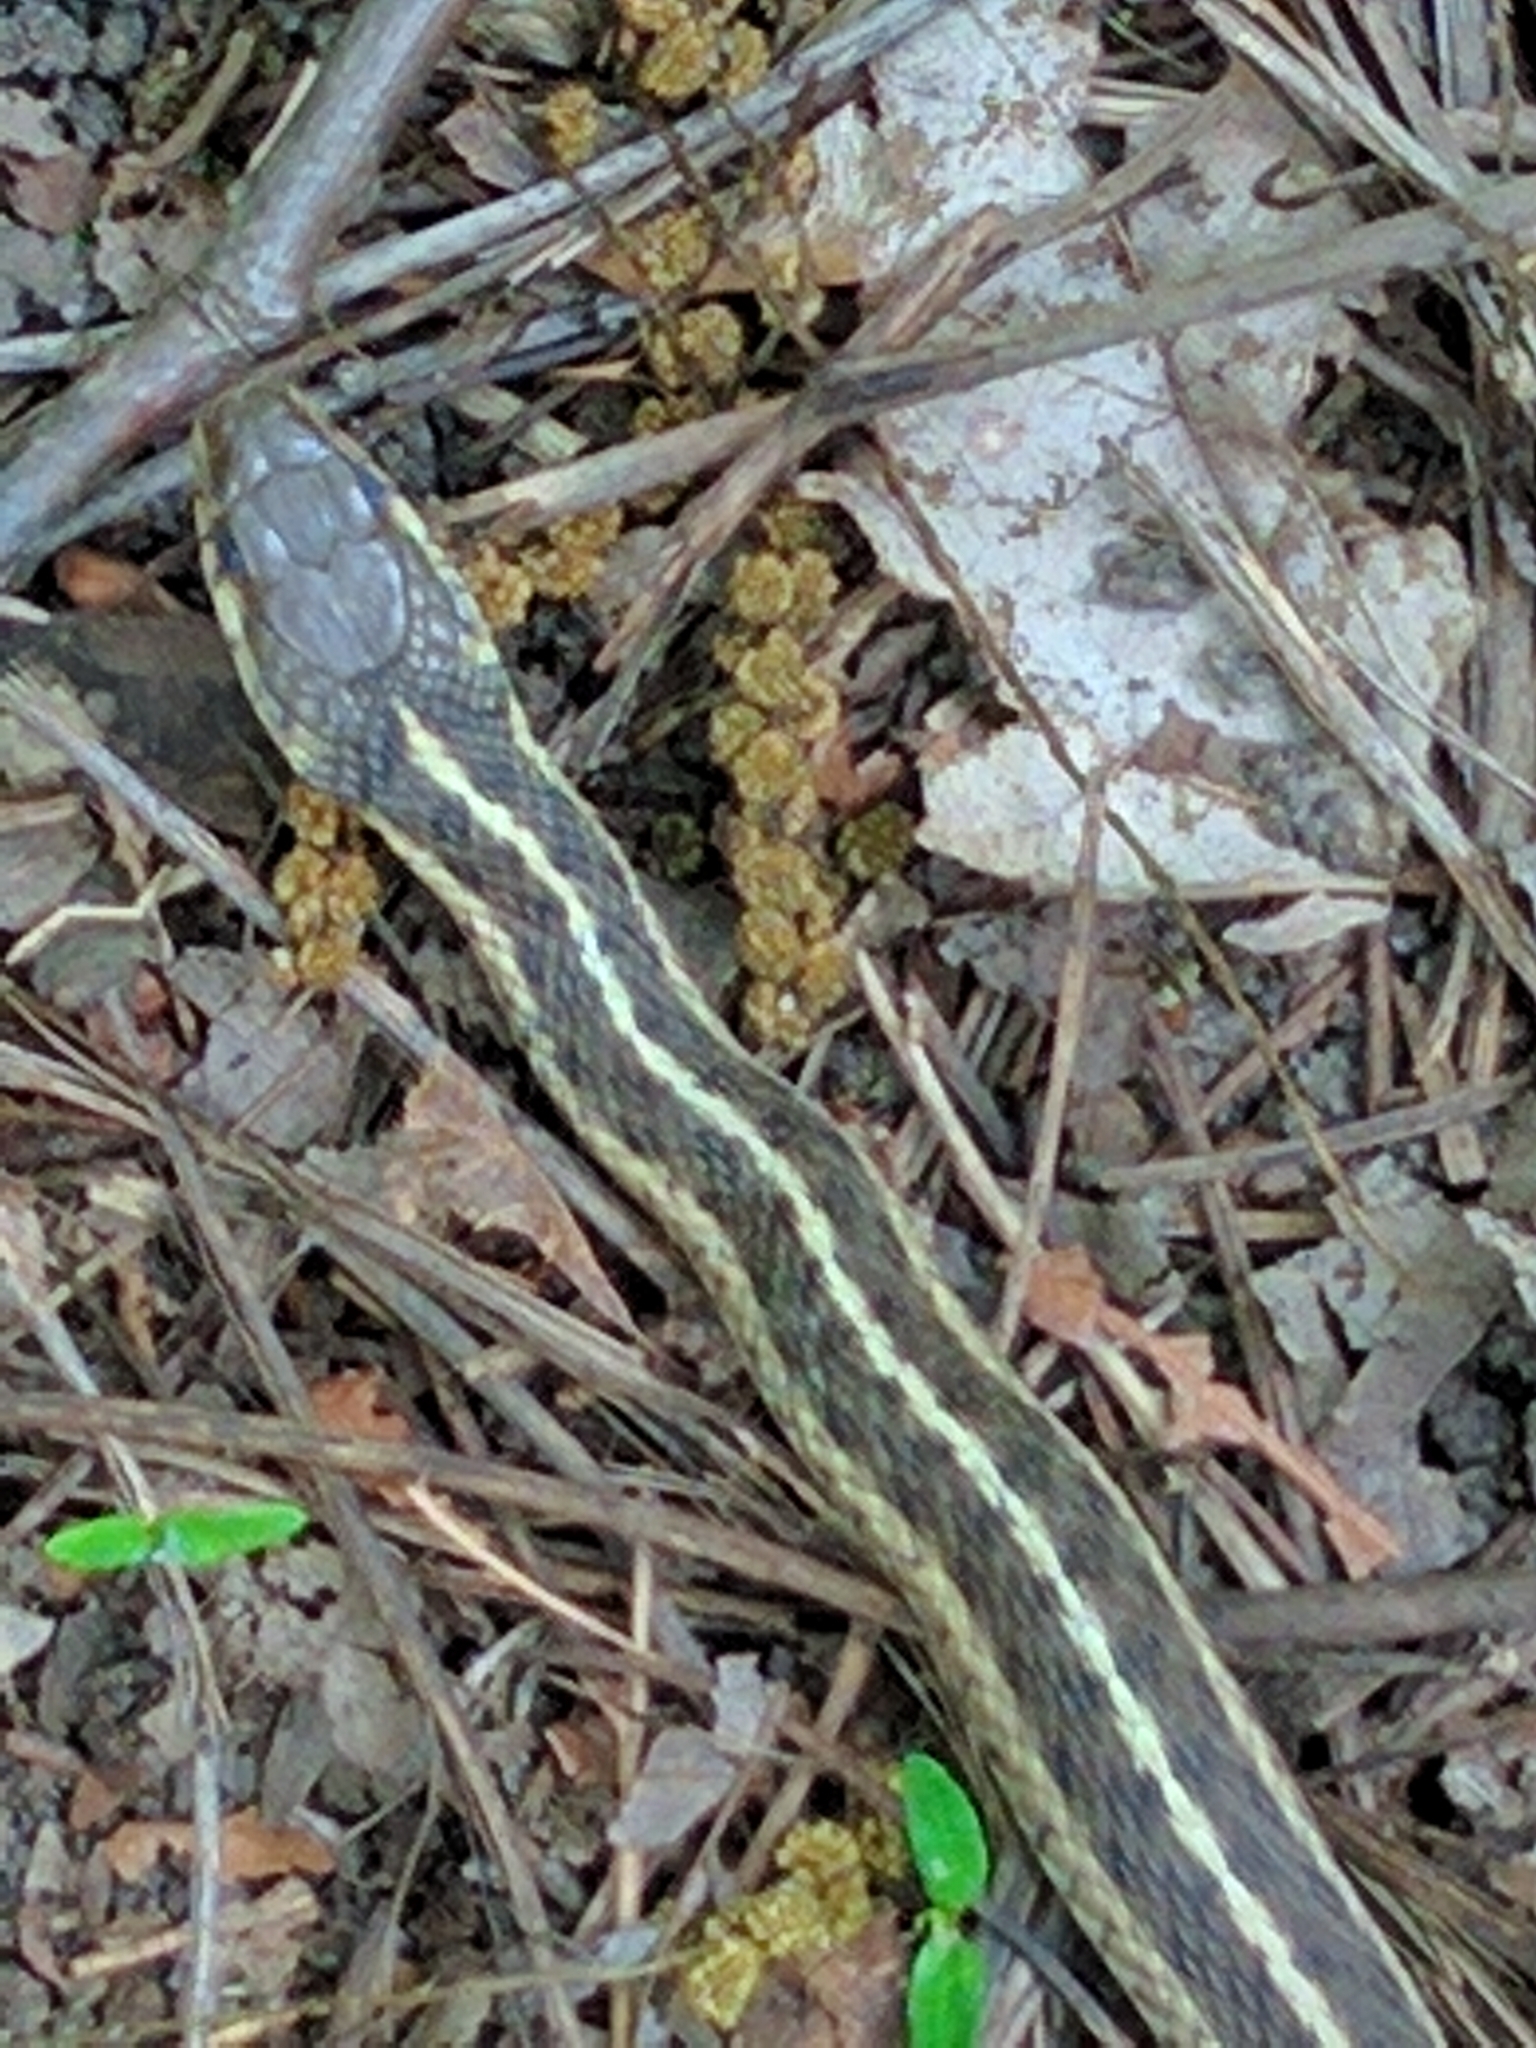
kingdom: Animalia
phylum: Chordata
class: Squamata
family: Colubridae
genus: Thamnophis
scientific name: Thamnophis sirtalis
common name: Common garter snake
